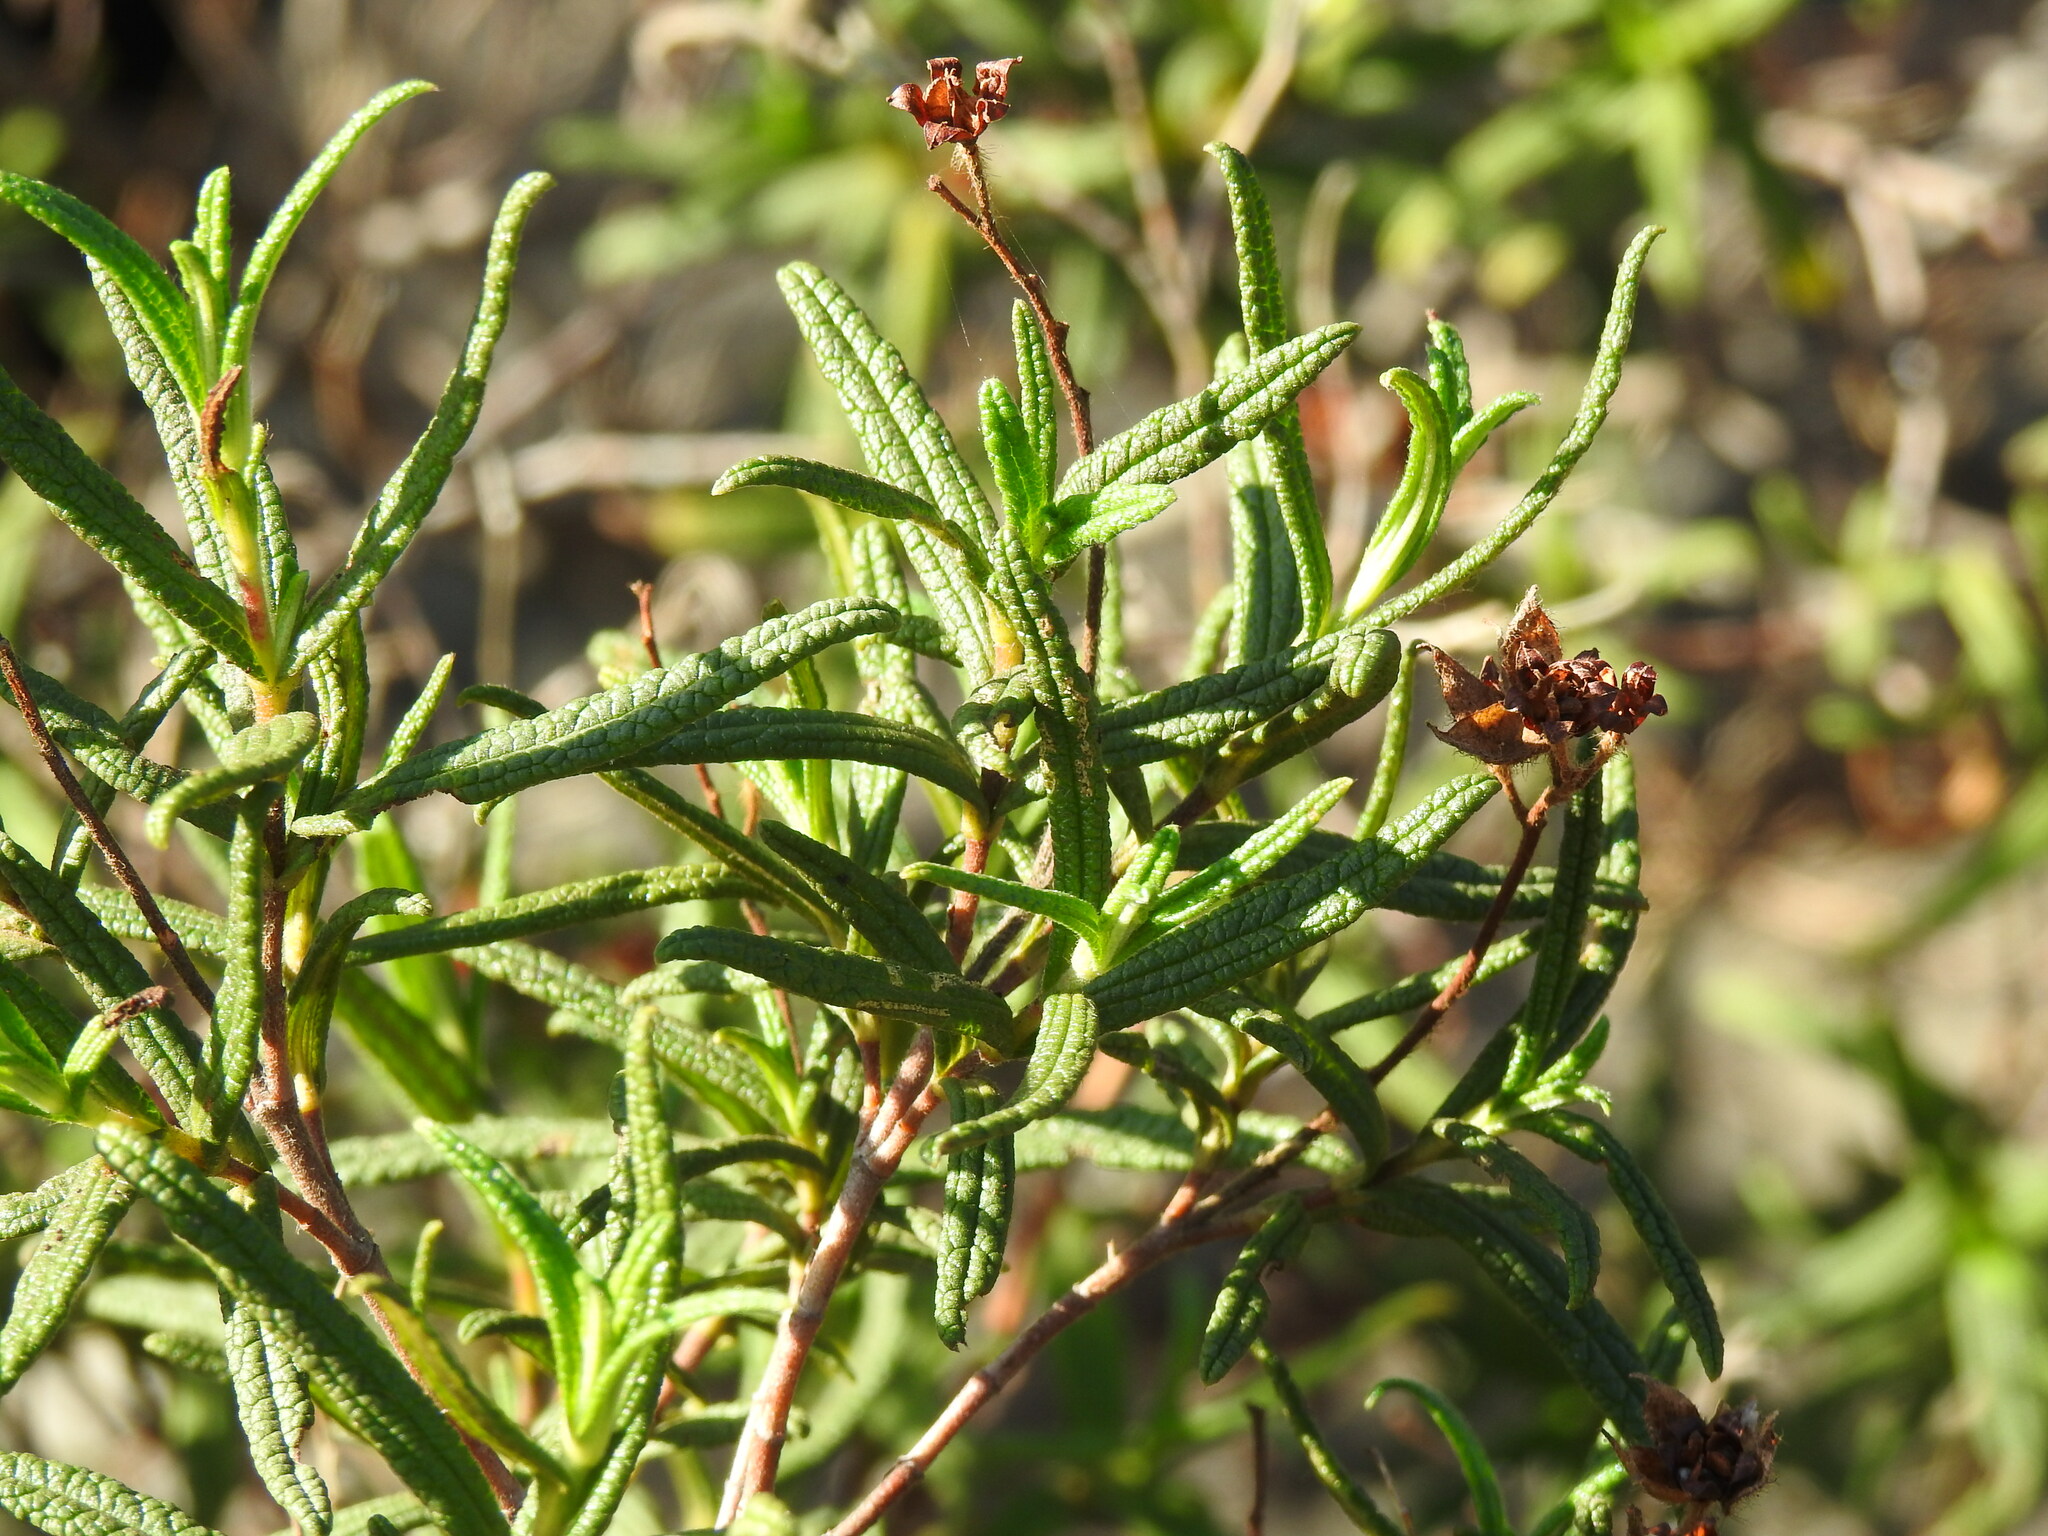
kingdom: Plantae
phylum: Tracheophyta
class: Magnoliopsida
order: Malvales
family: Cistaceae
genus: Cistus
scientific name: Cistus monspeliensis
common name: Montpelier cistus
